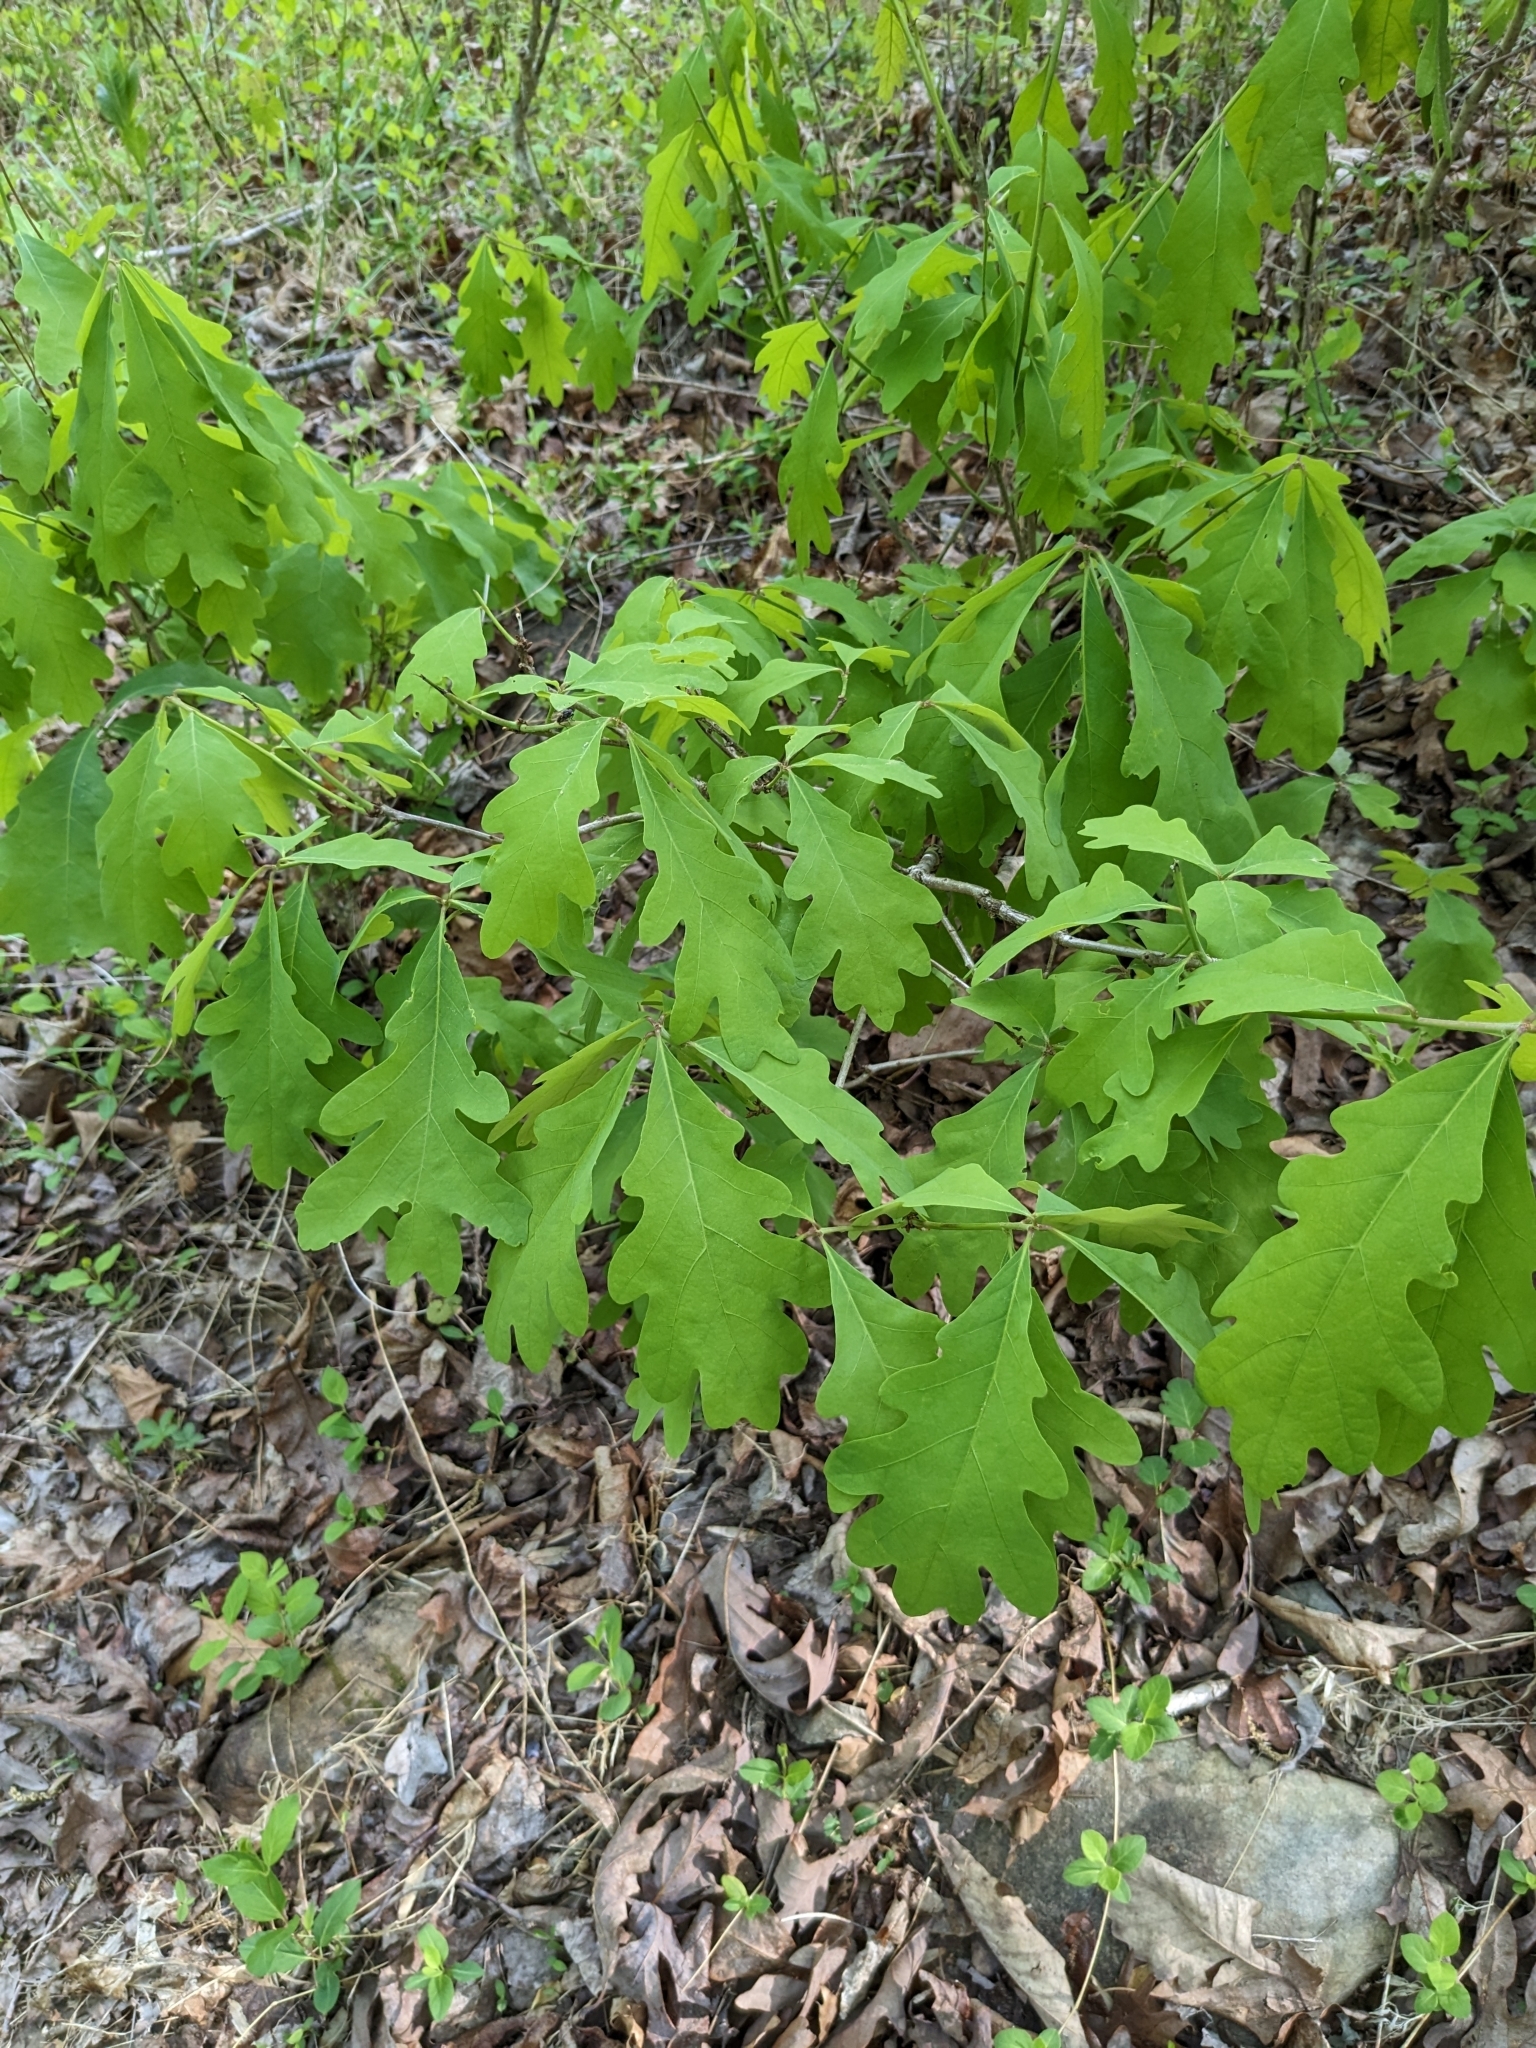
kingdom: Plantae
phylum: Tracheophyta
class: Magnoliopsida
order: Fagales
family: Fagaceae
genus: Quercus
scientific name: Quercus alba
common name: White oak
